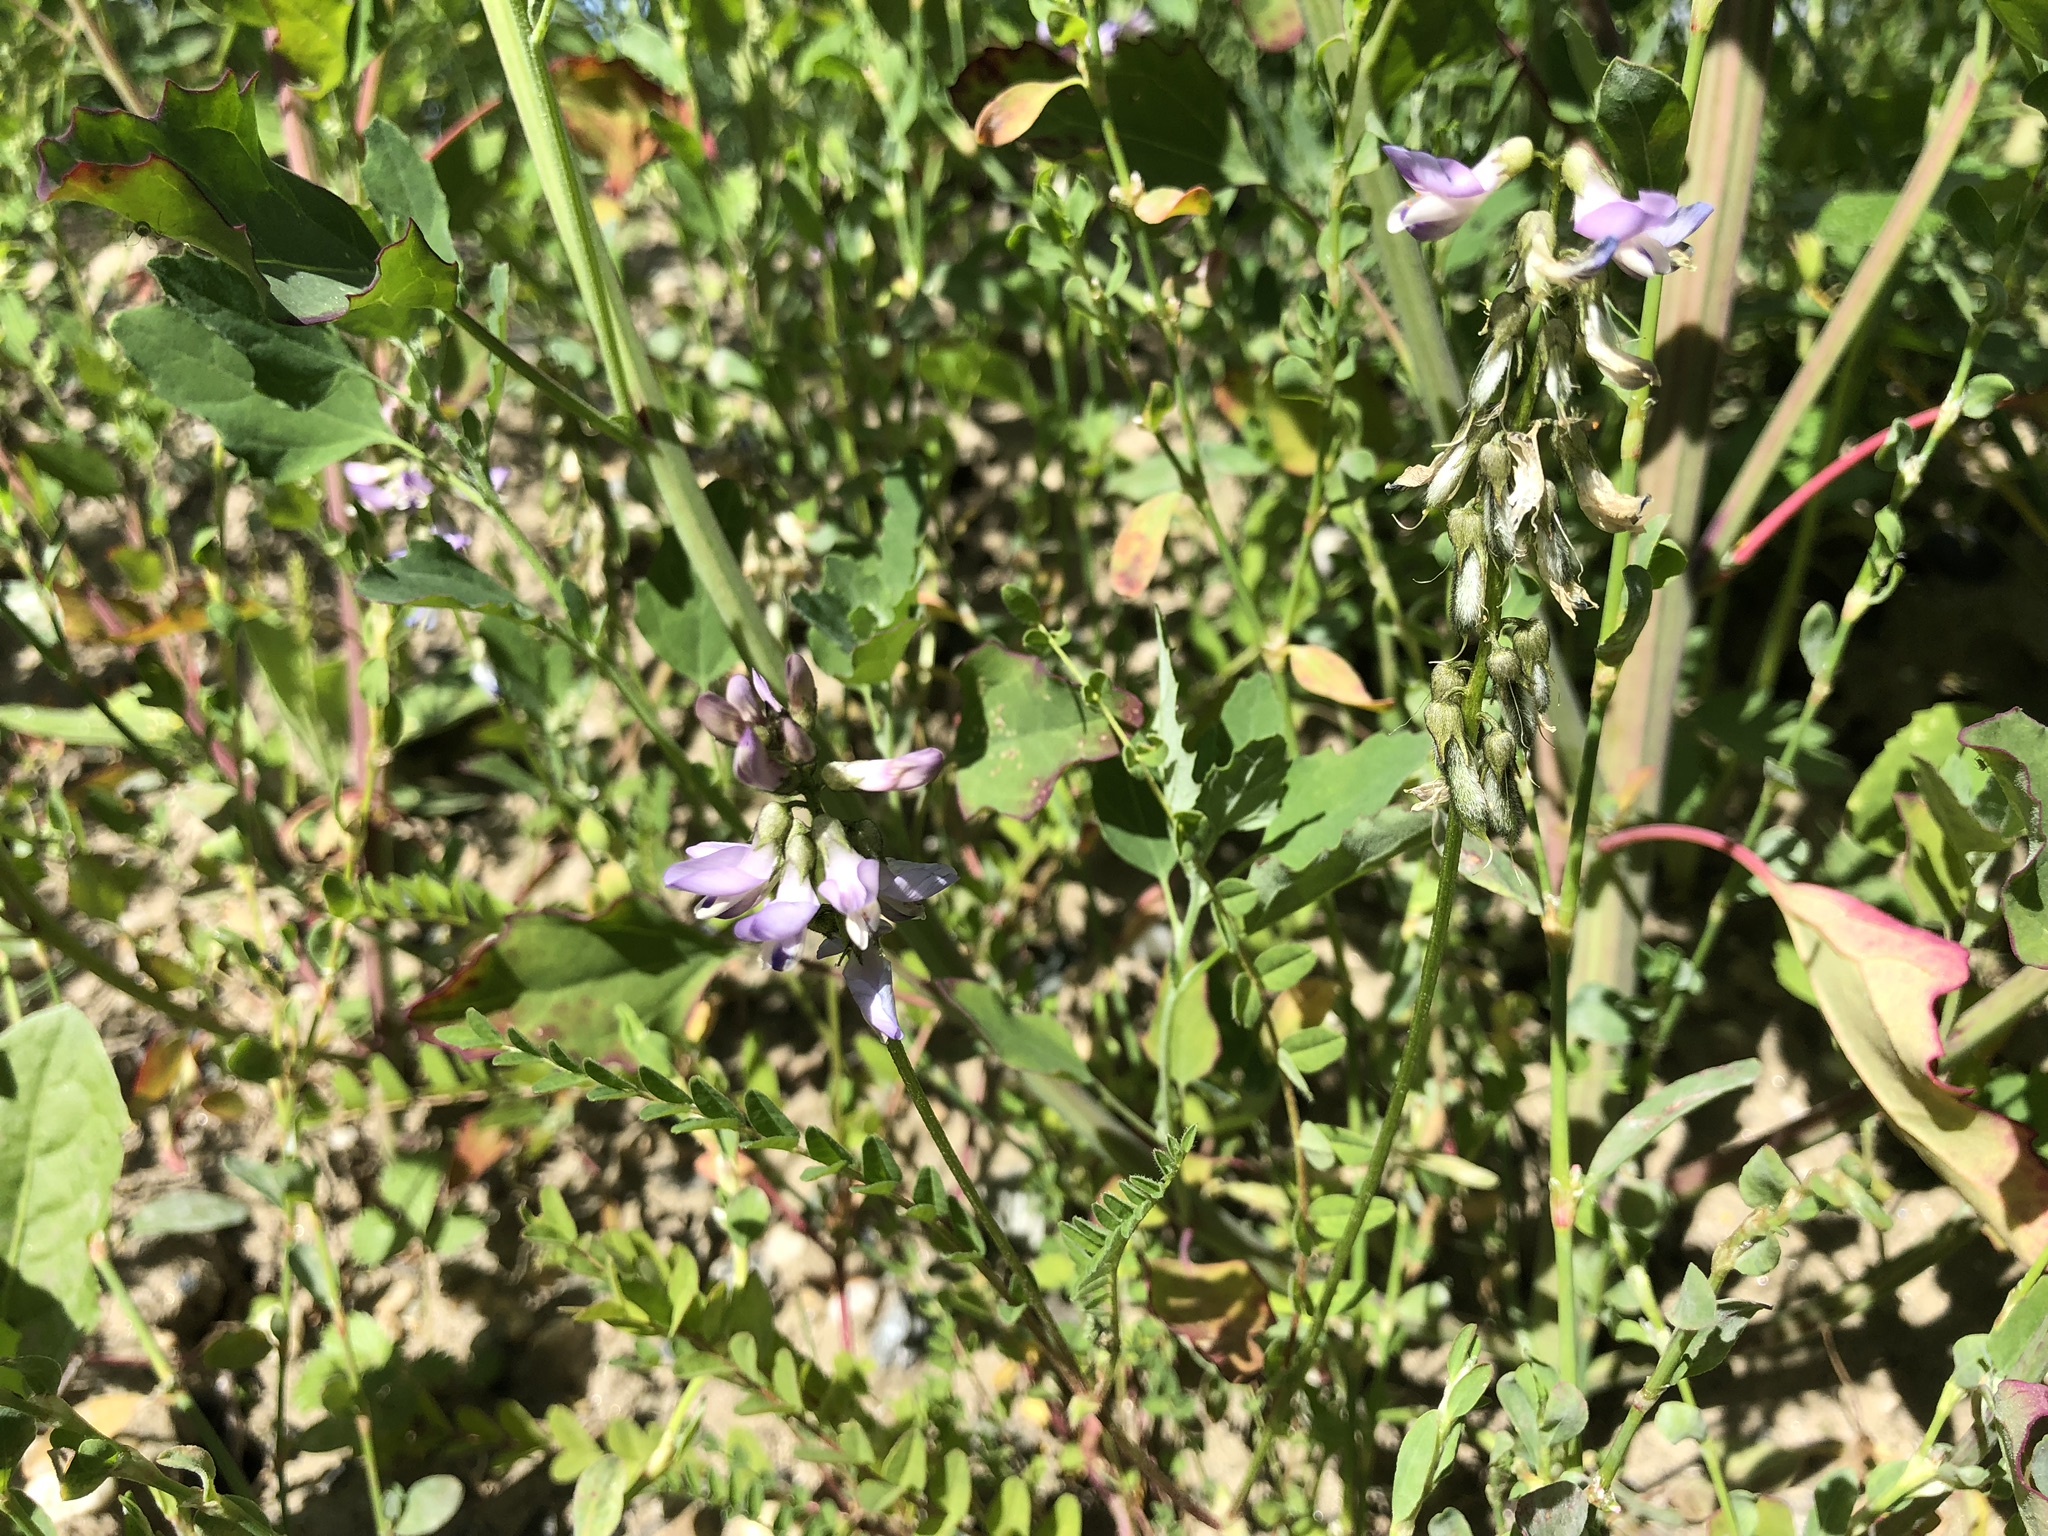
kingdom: Plantae
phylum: Tracheophyta
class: Magnoliopsida
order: Fabales
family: Fabaceae
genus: Astragalus
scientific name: Astragalus alpinus
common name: Alpine milk-vetch
